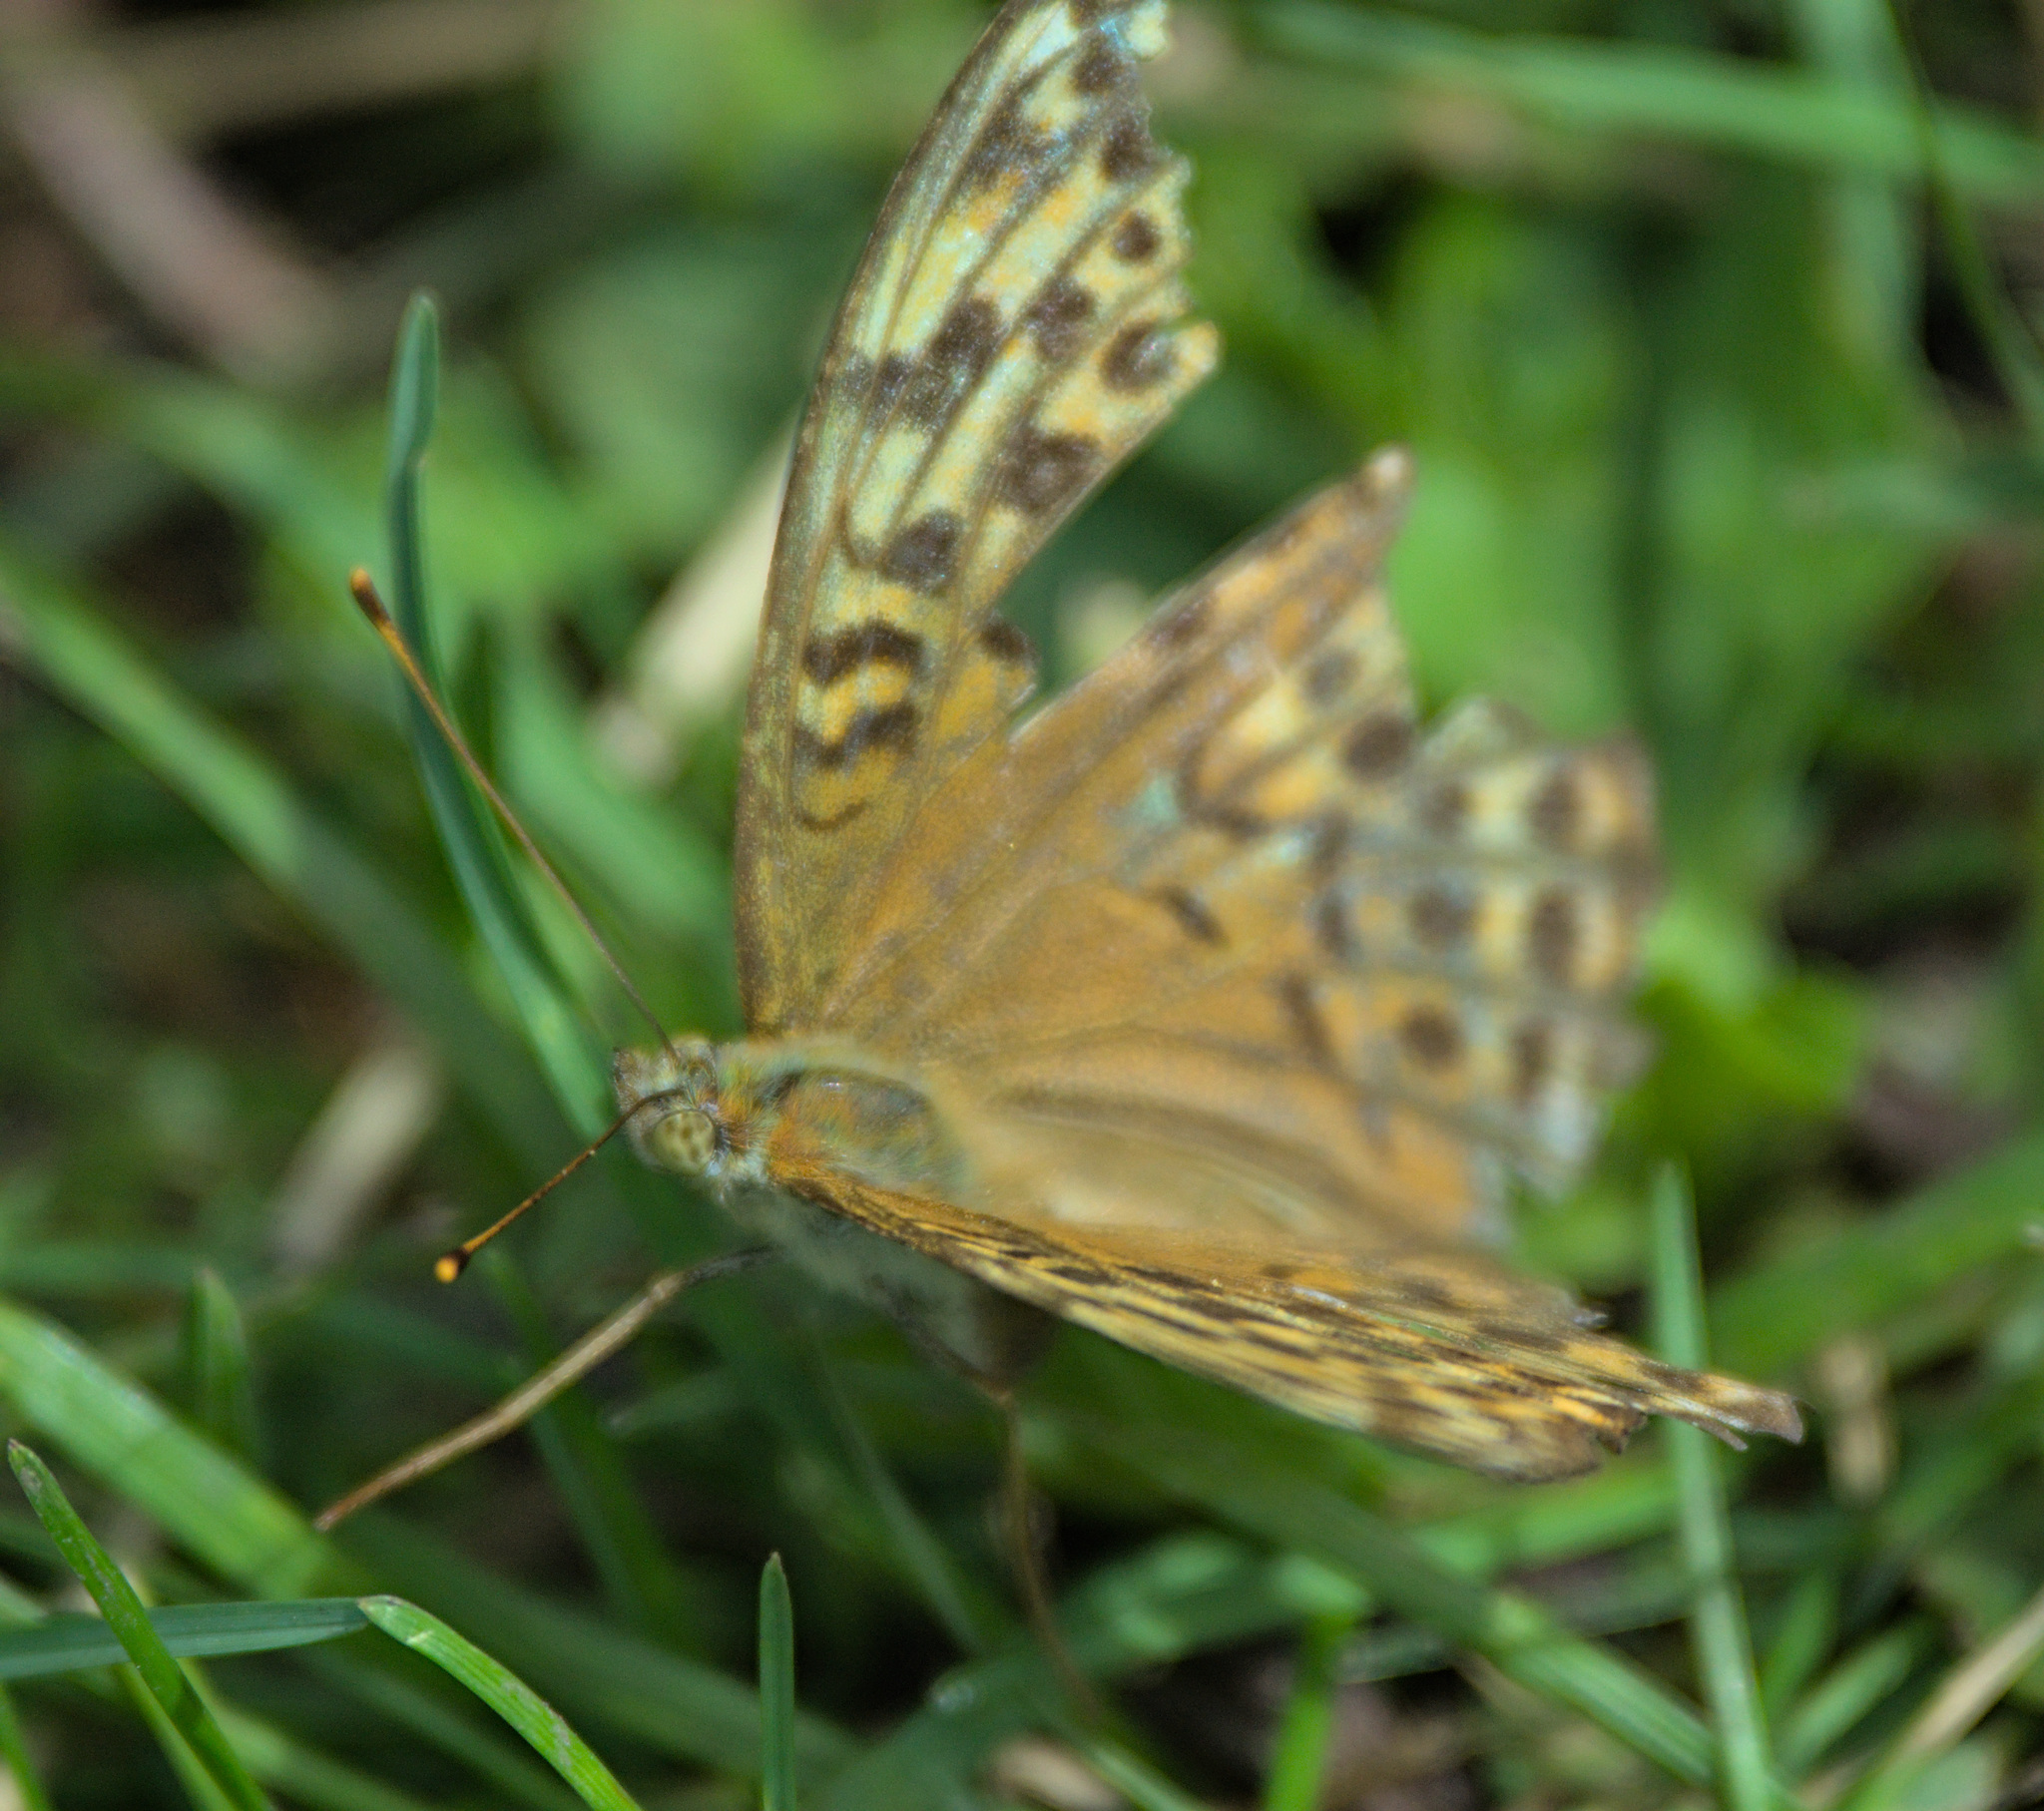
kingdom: Animalia
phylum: Arthropoda
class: Insecta
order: Lepidoptera
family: Nymphalidae
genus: Argynnis
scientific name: Argynnis paphia
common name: Silver-washed fritillary
